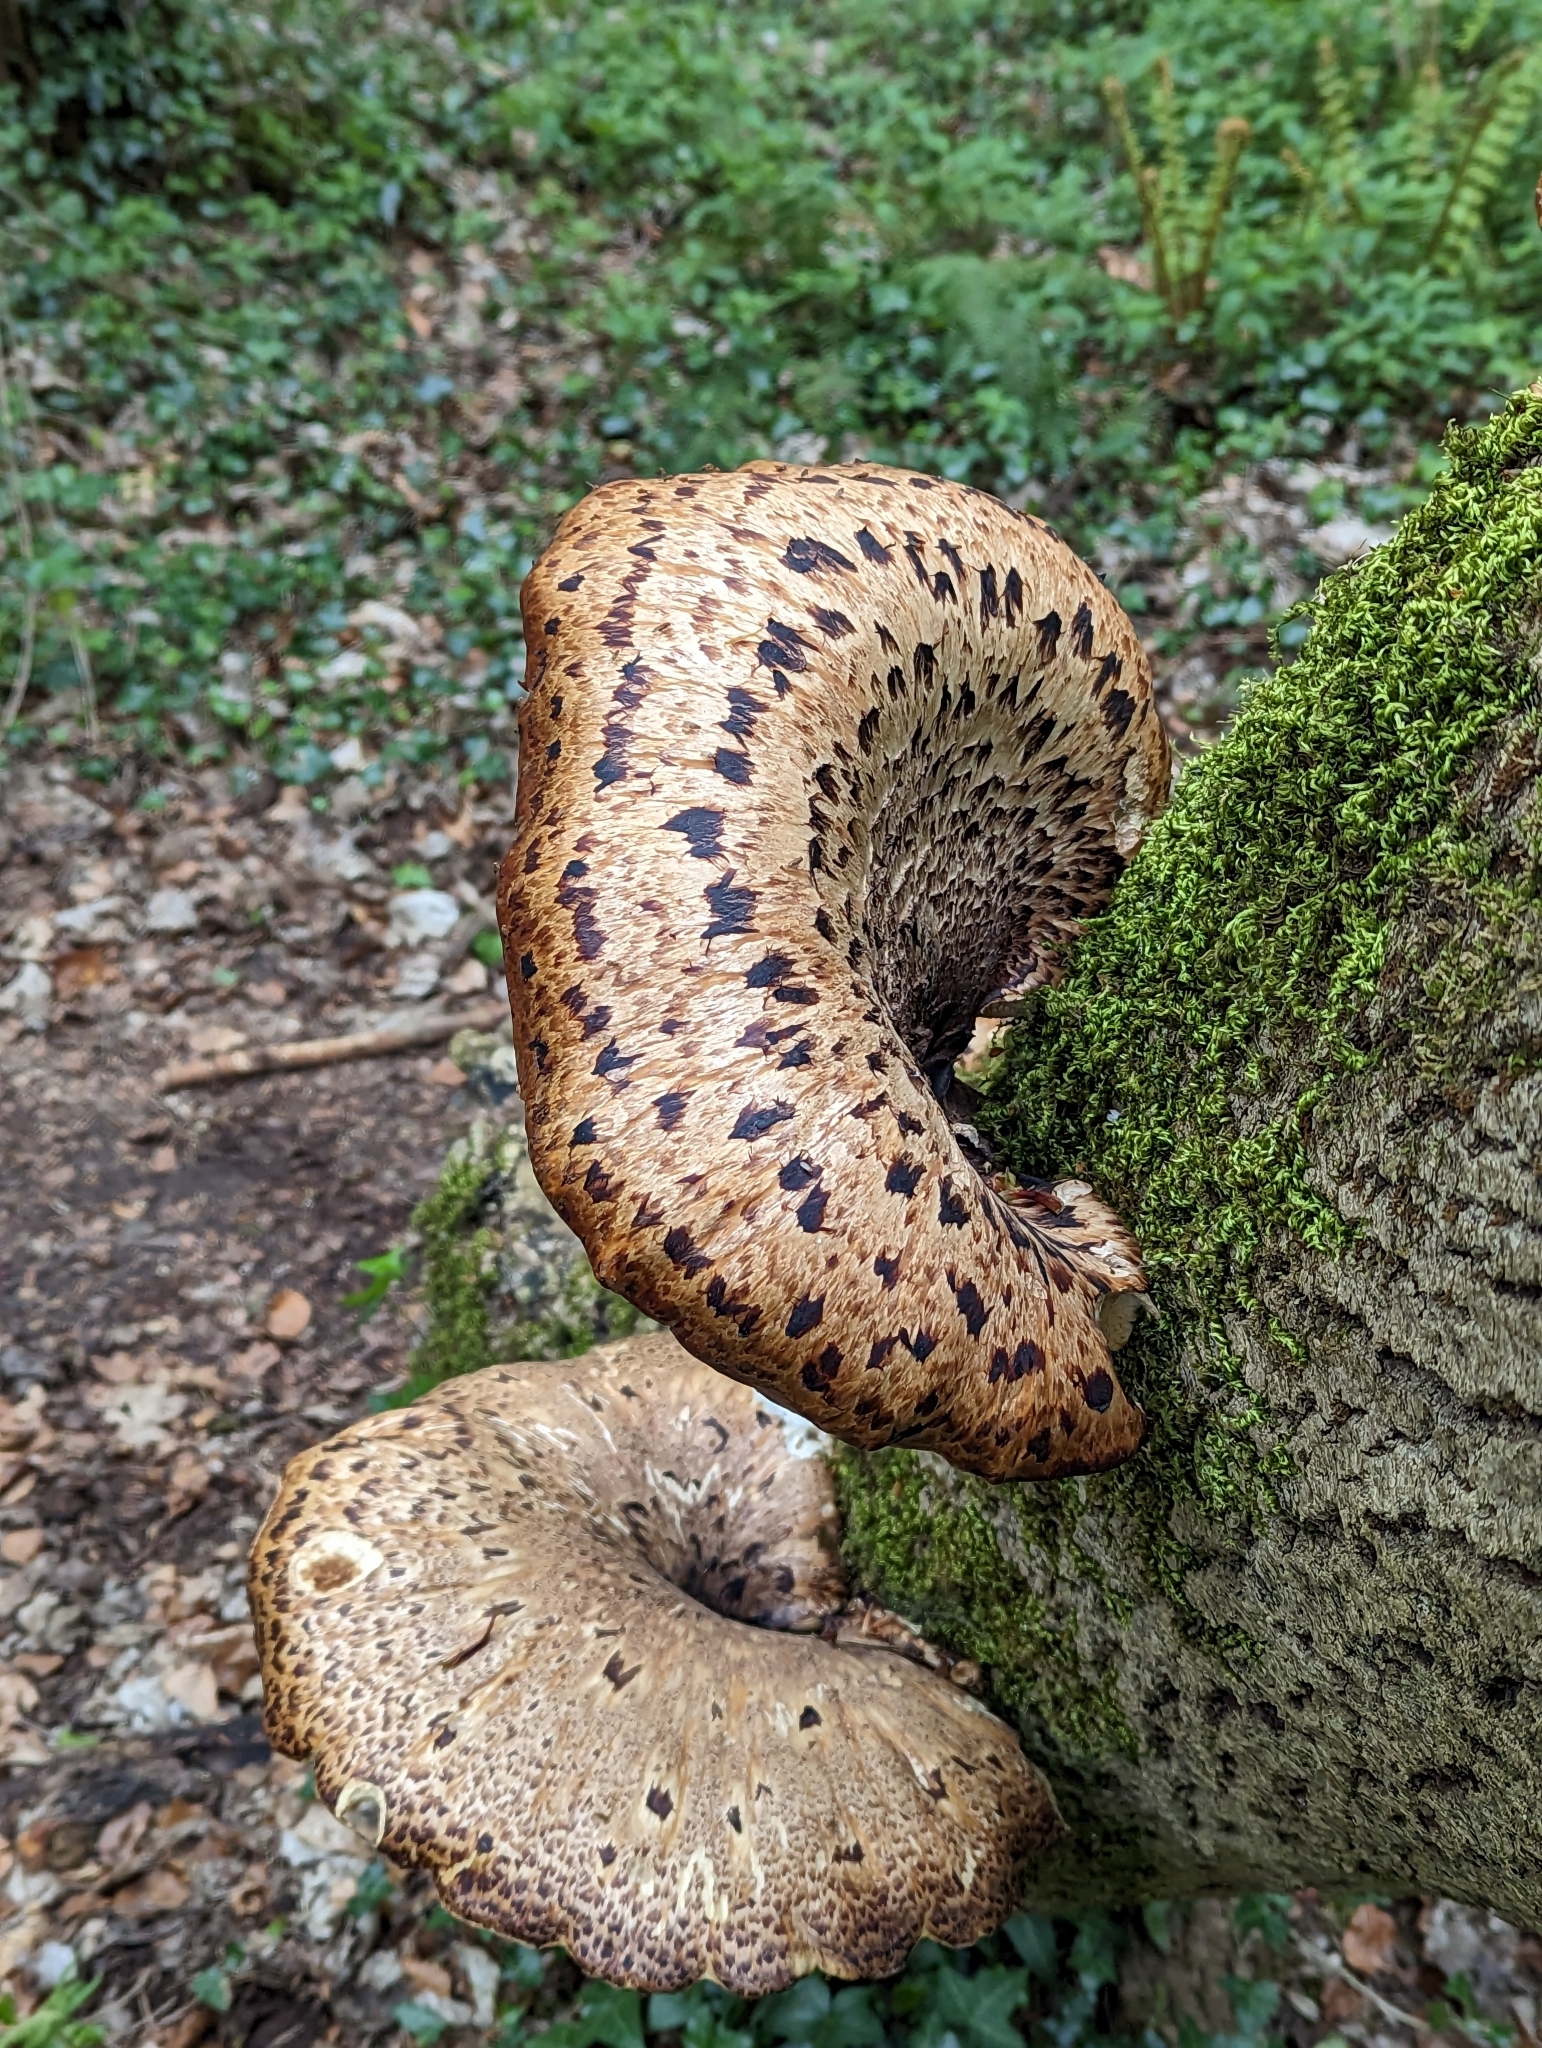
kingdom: Fungi
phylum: Basidiomycota
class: Agaricomycetes
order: Polyporales
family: Polyporaceae
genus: Cerioporus
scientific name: Cerioporus squamosus
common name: Dryad's saddle
